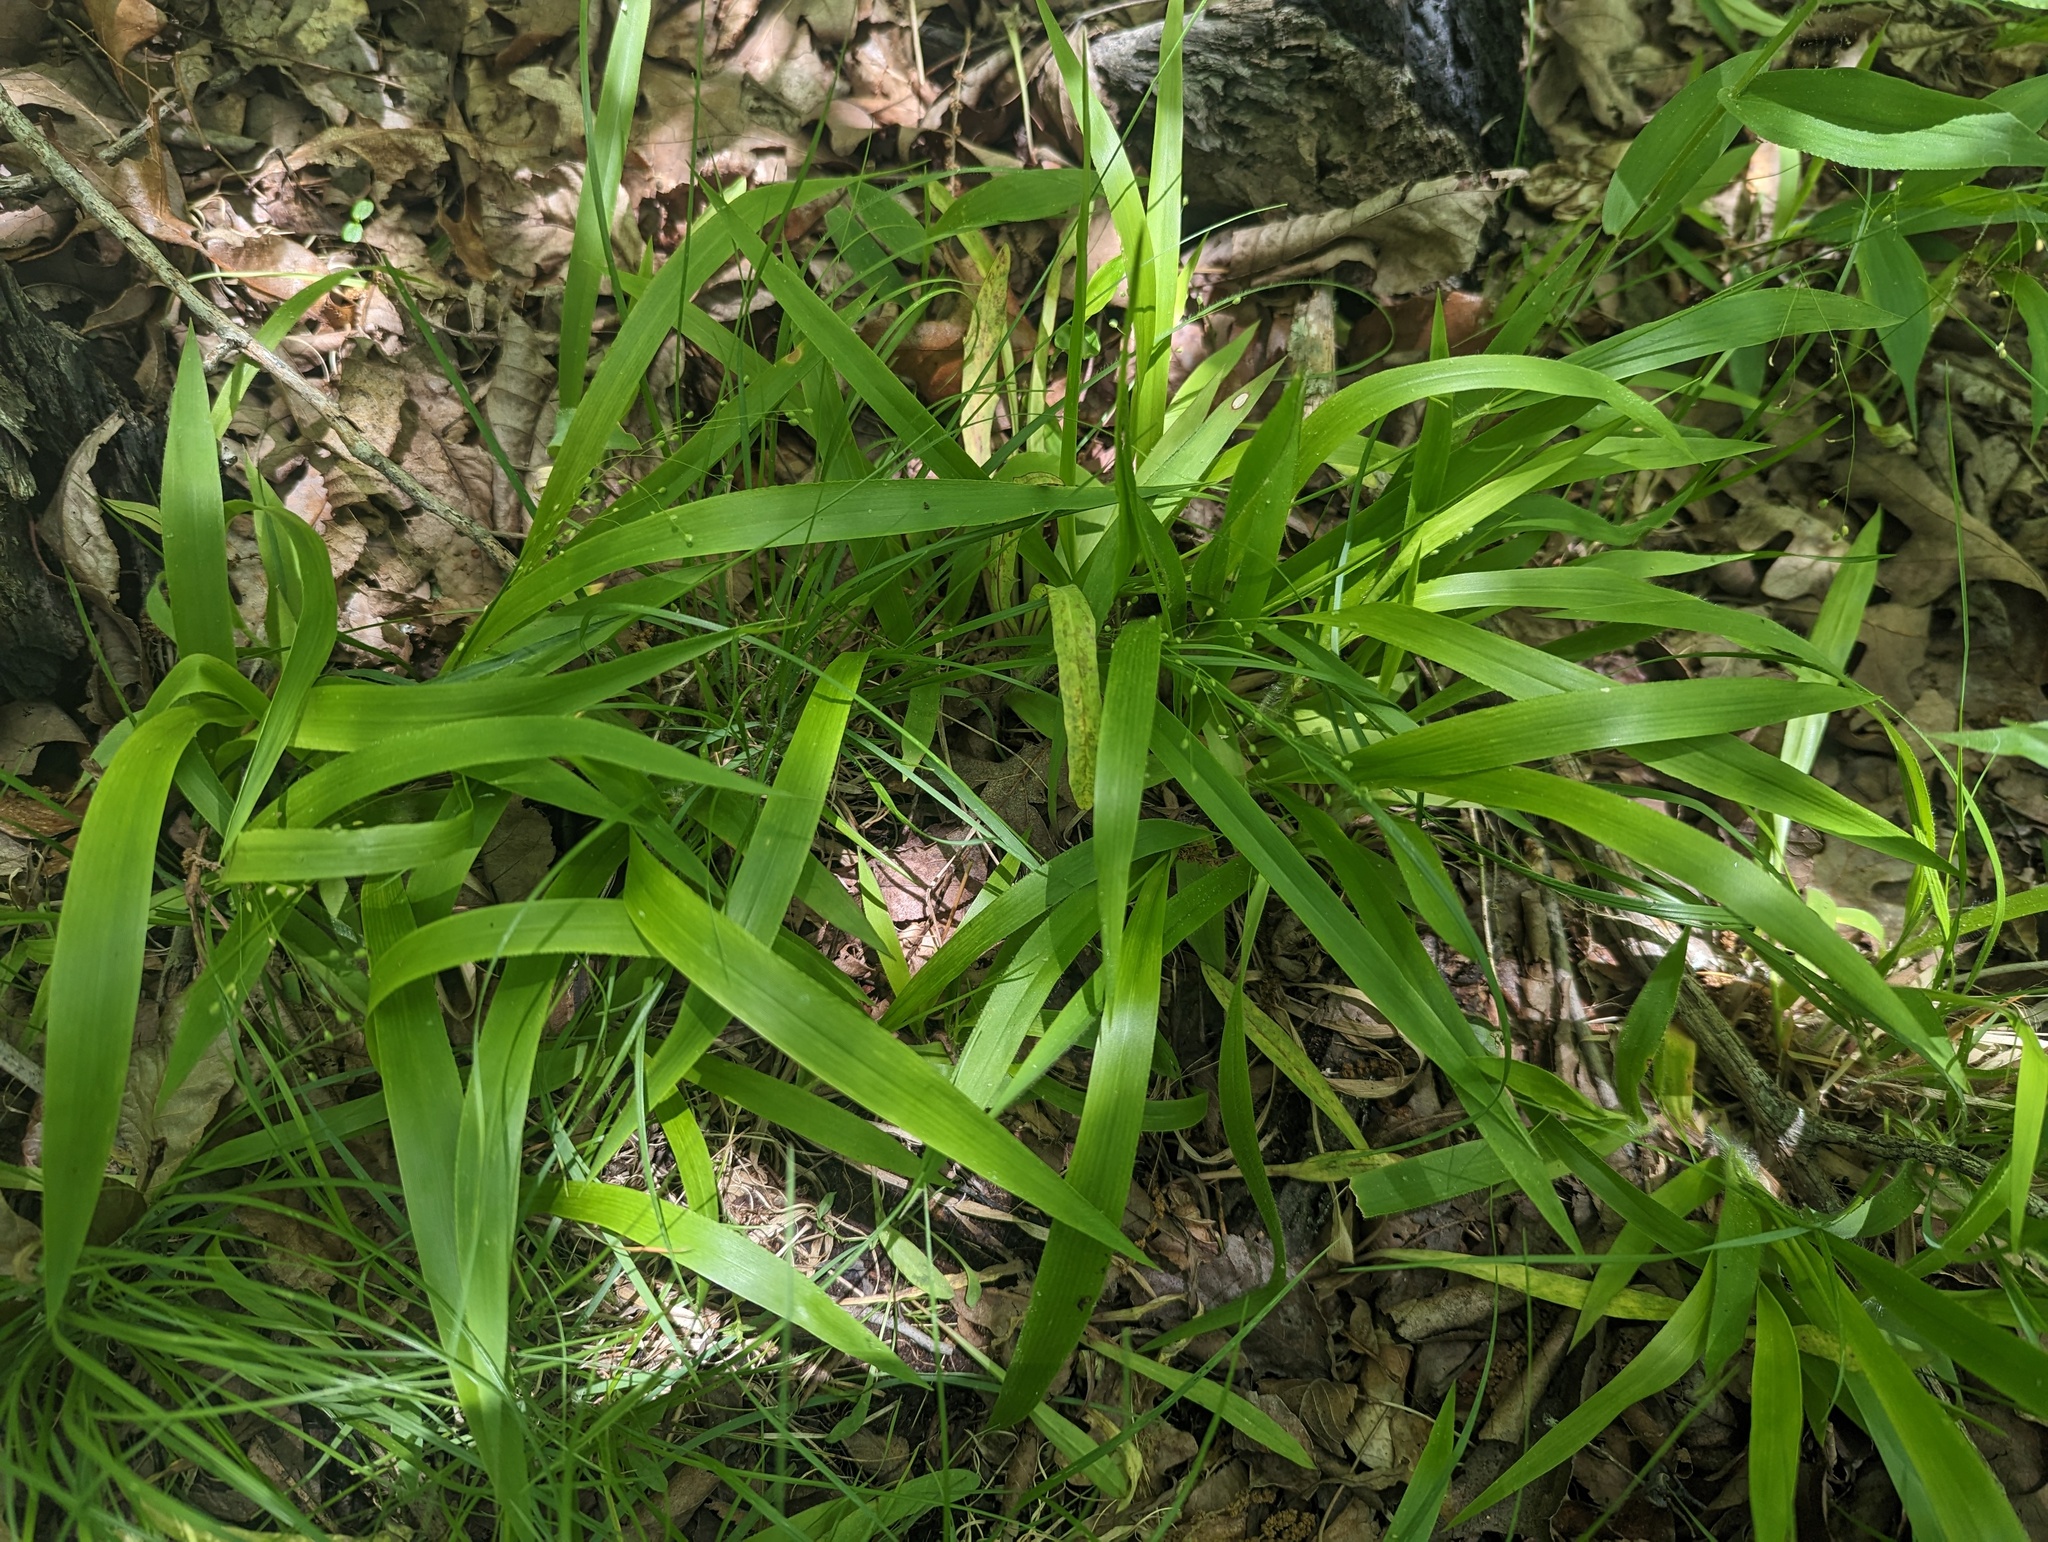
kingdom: Plantae
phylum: Tracheophyta
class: Liliopsida
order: Poales
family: Poaceae
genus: Dichanthelium
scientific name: Dichanthelium laxiflorum
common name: Soft-tuft panic grass
